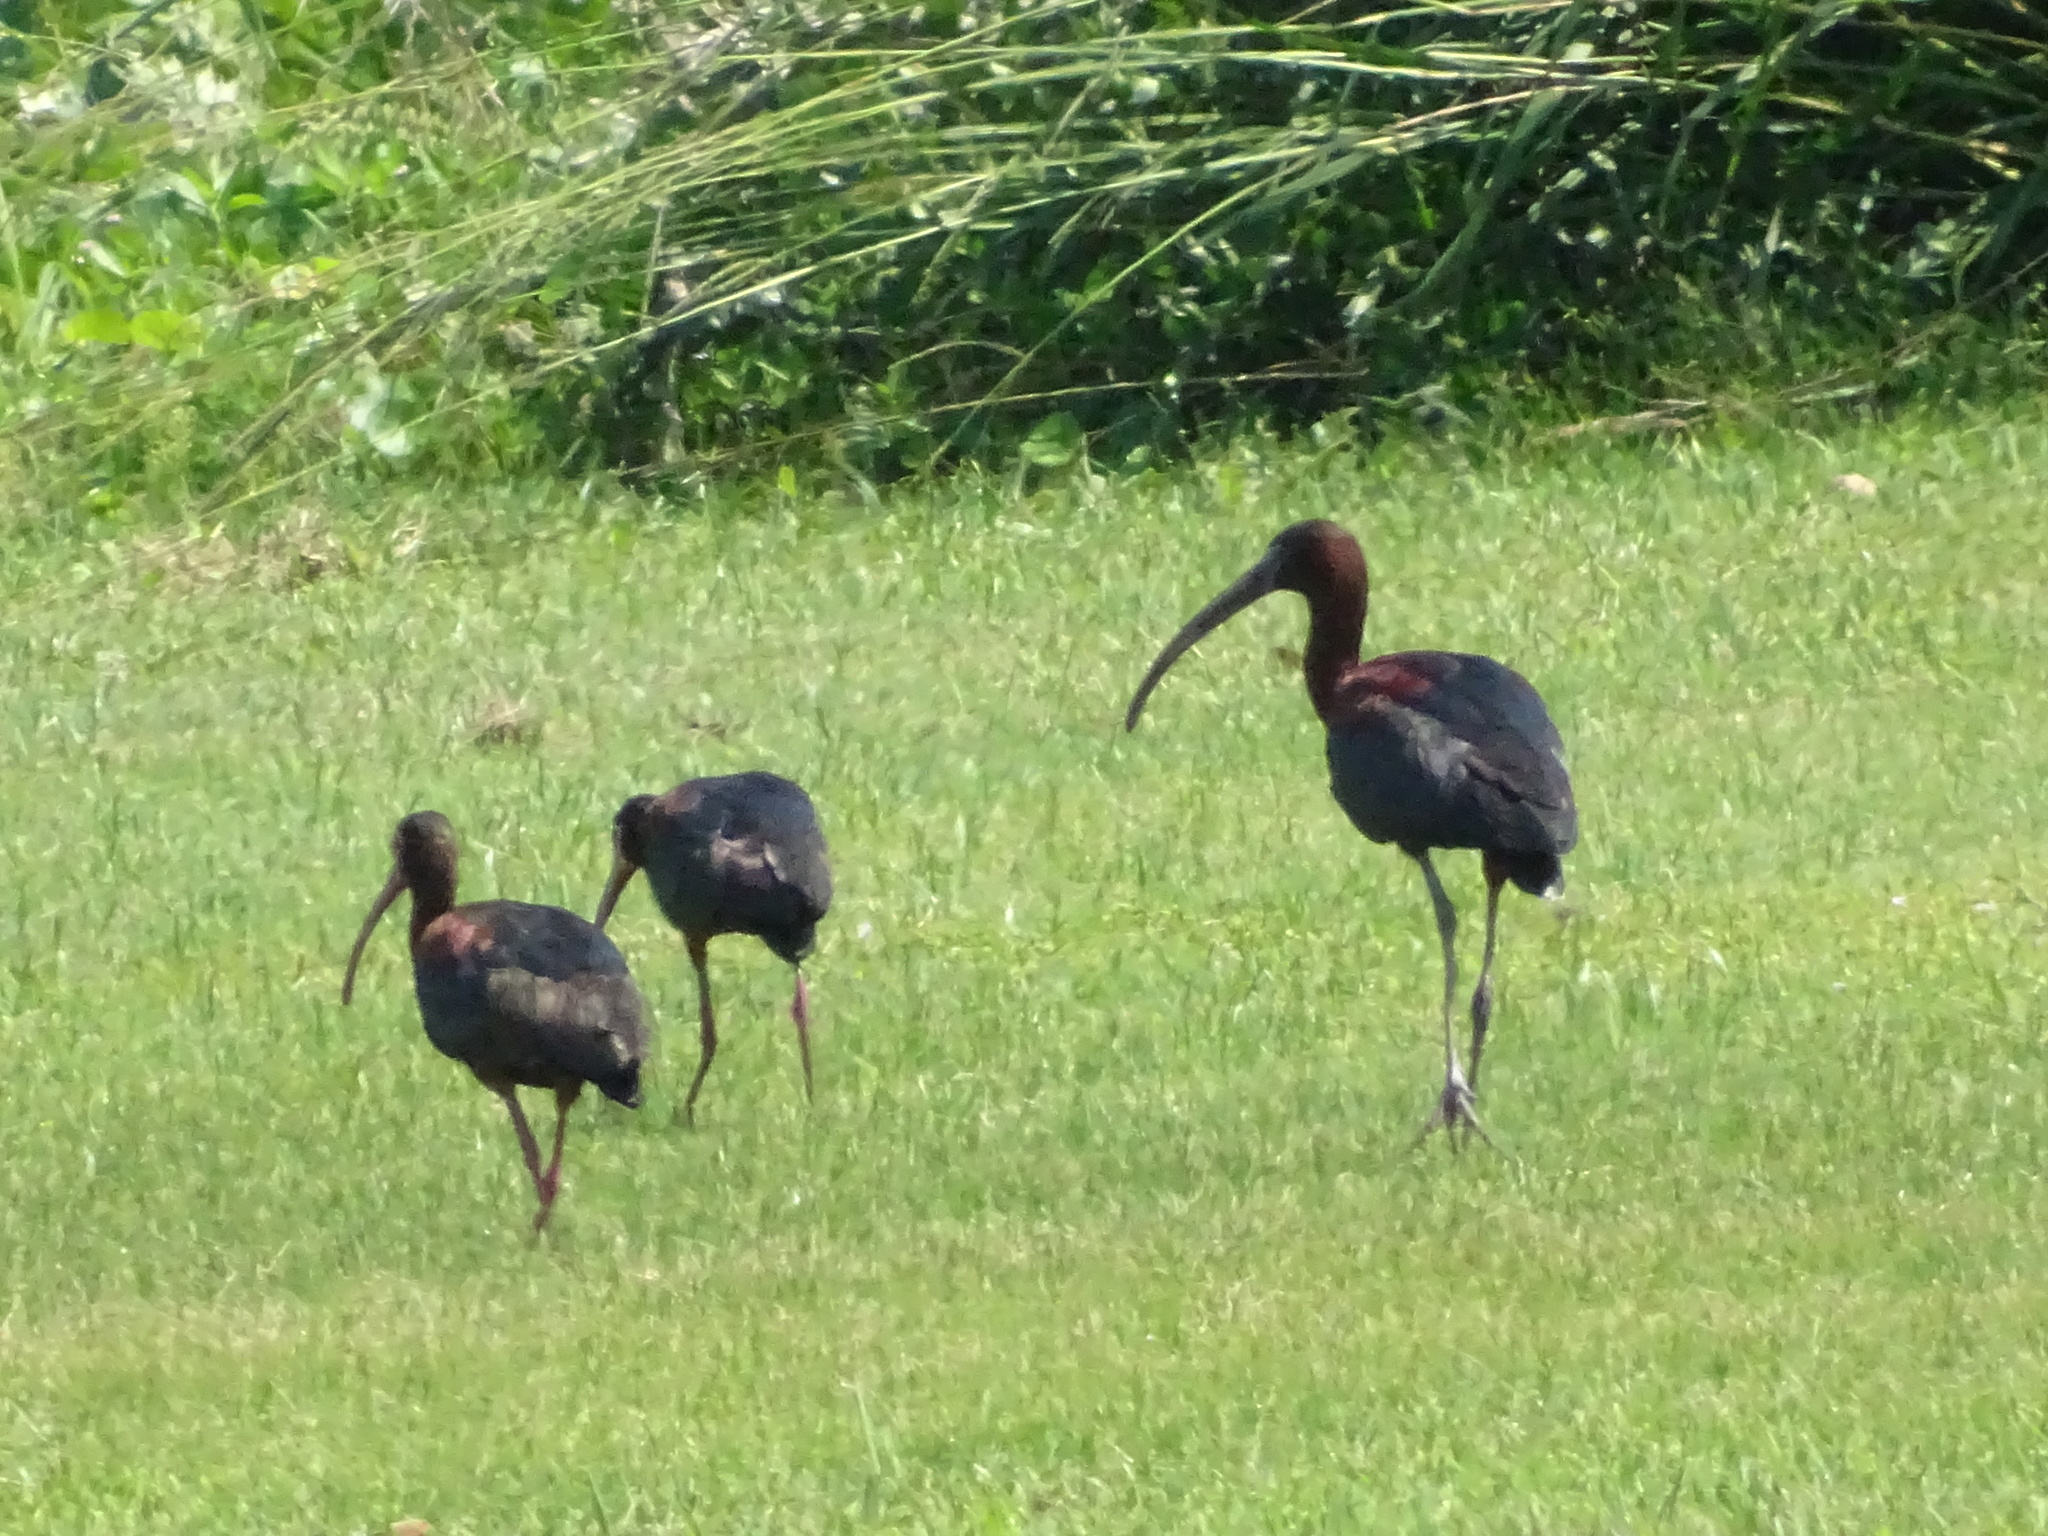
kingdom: Animalia
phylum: Chordata
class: Aves
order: Pelecaniformes
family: Threskiornithidae
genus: Plegadis
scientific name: Plegadis falcinellus
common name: Glossy ibis
